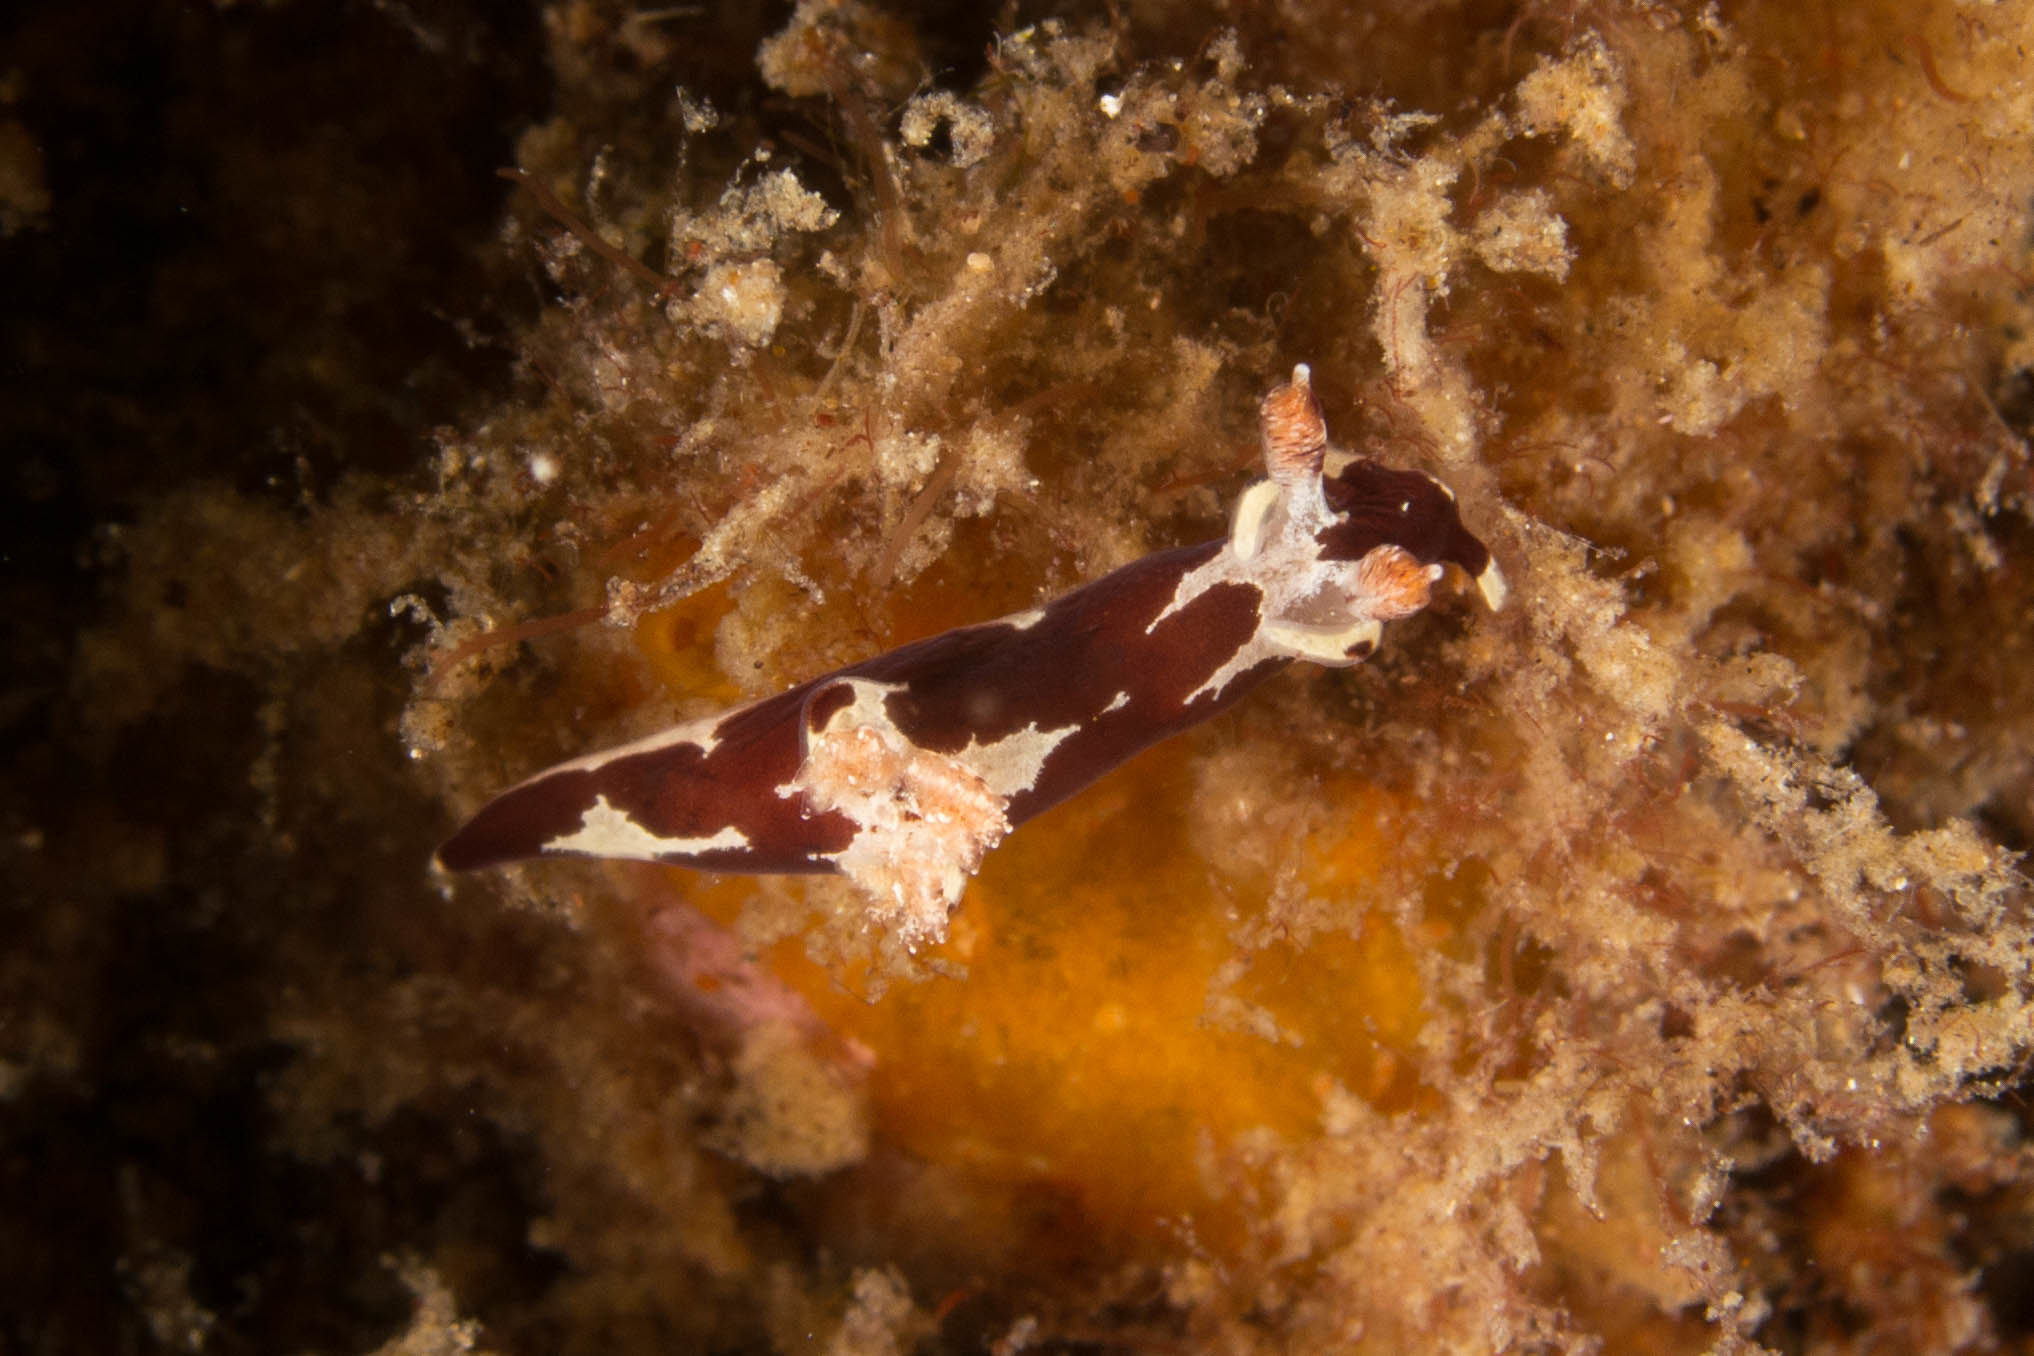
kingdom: Animalia
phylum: Mollusca
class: Gastropoda
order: Nudibranchia
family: Goniodorididae
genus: Trapania
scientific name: Trapania safracornia
